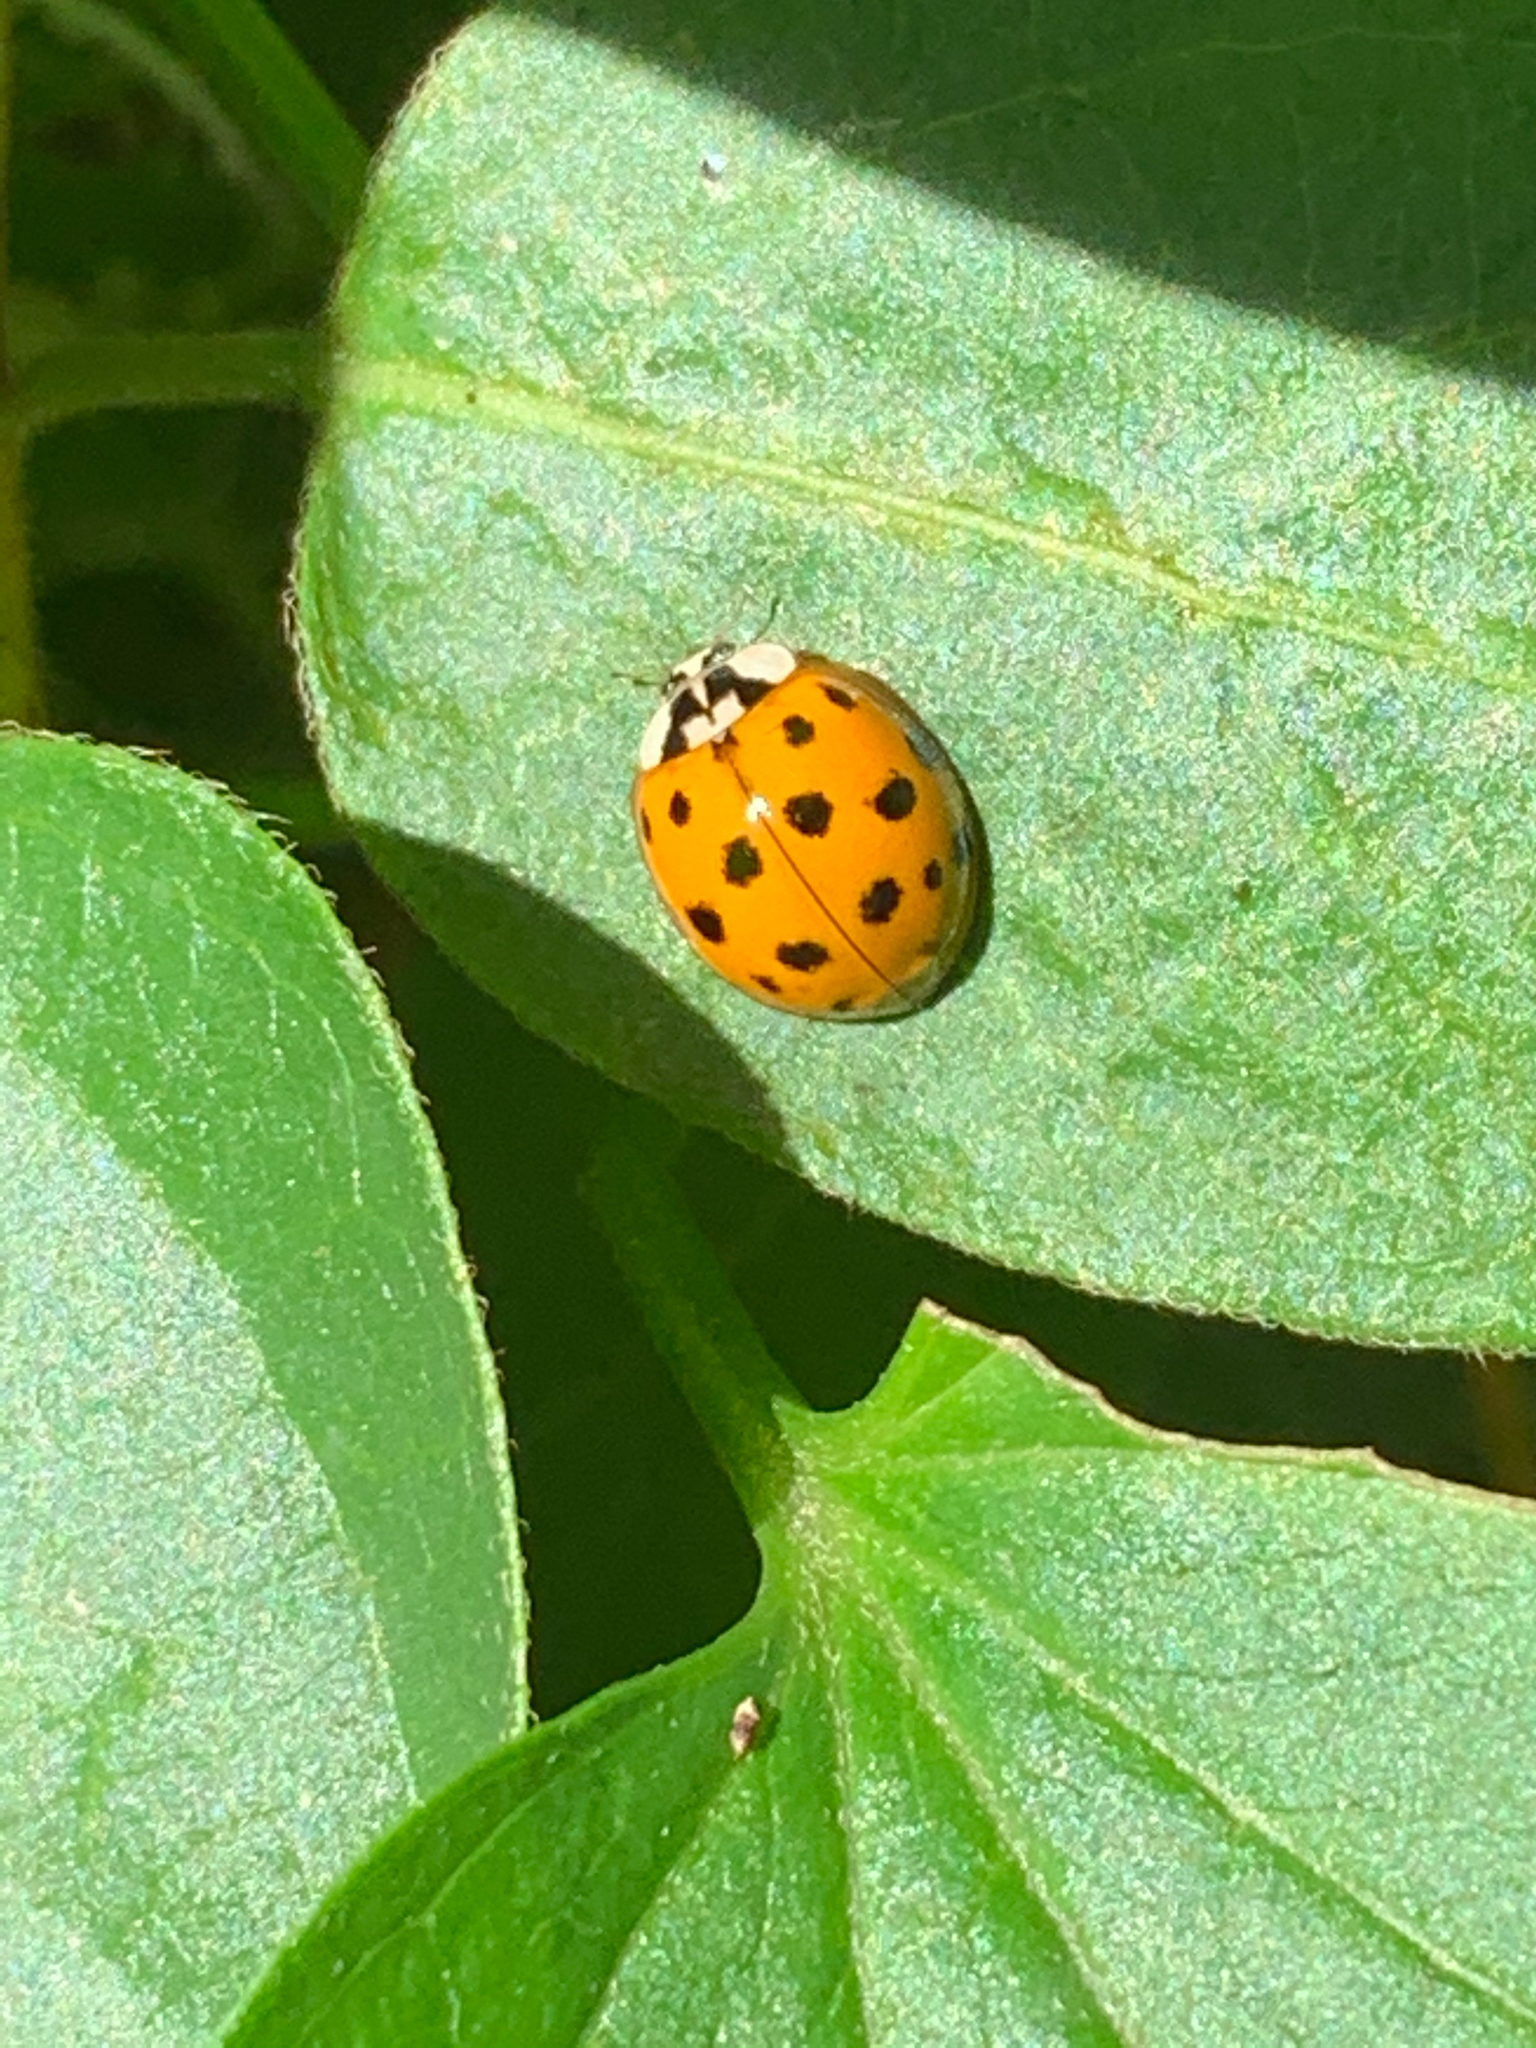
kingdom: Animalia
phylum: Arthropoda
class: Insecta
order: Coleoptera
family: Coccinellidae
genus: Harmonia
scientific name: Harmonia axyridis
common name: Harlequin ladybird
